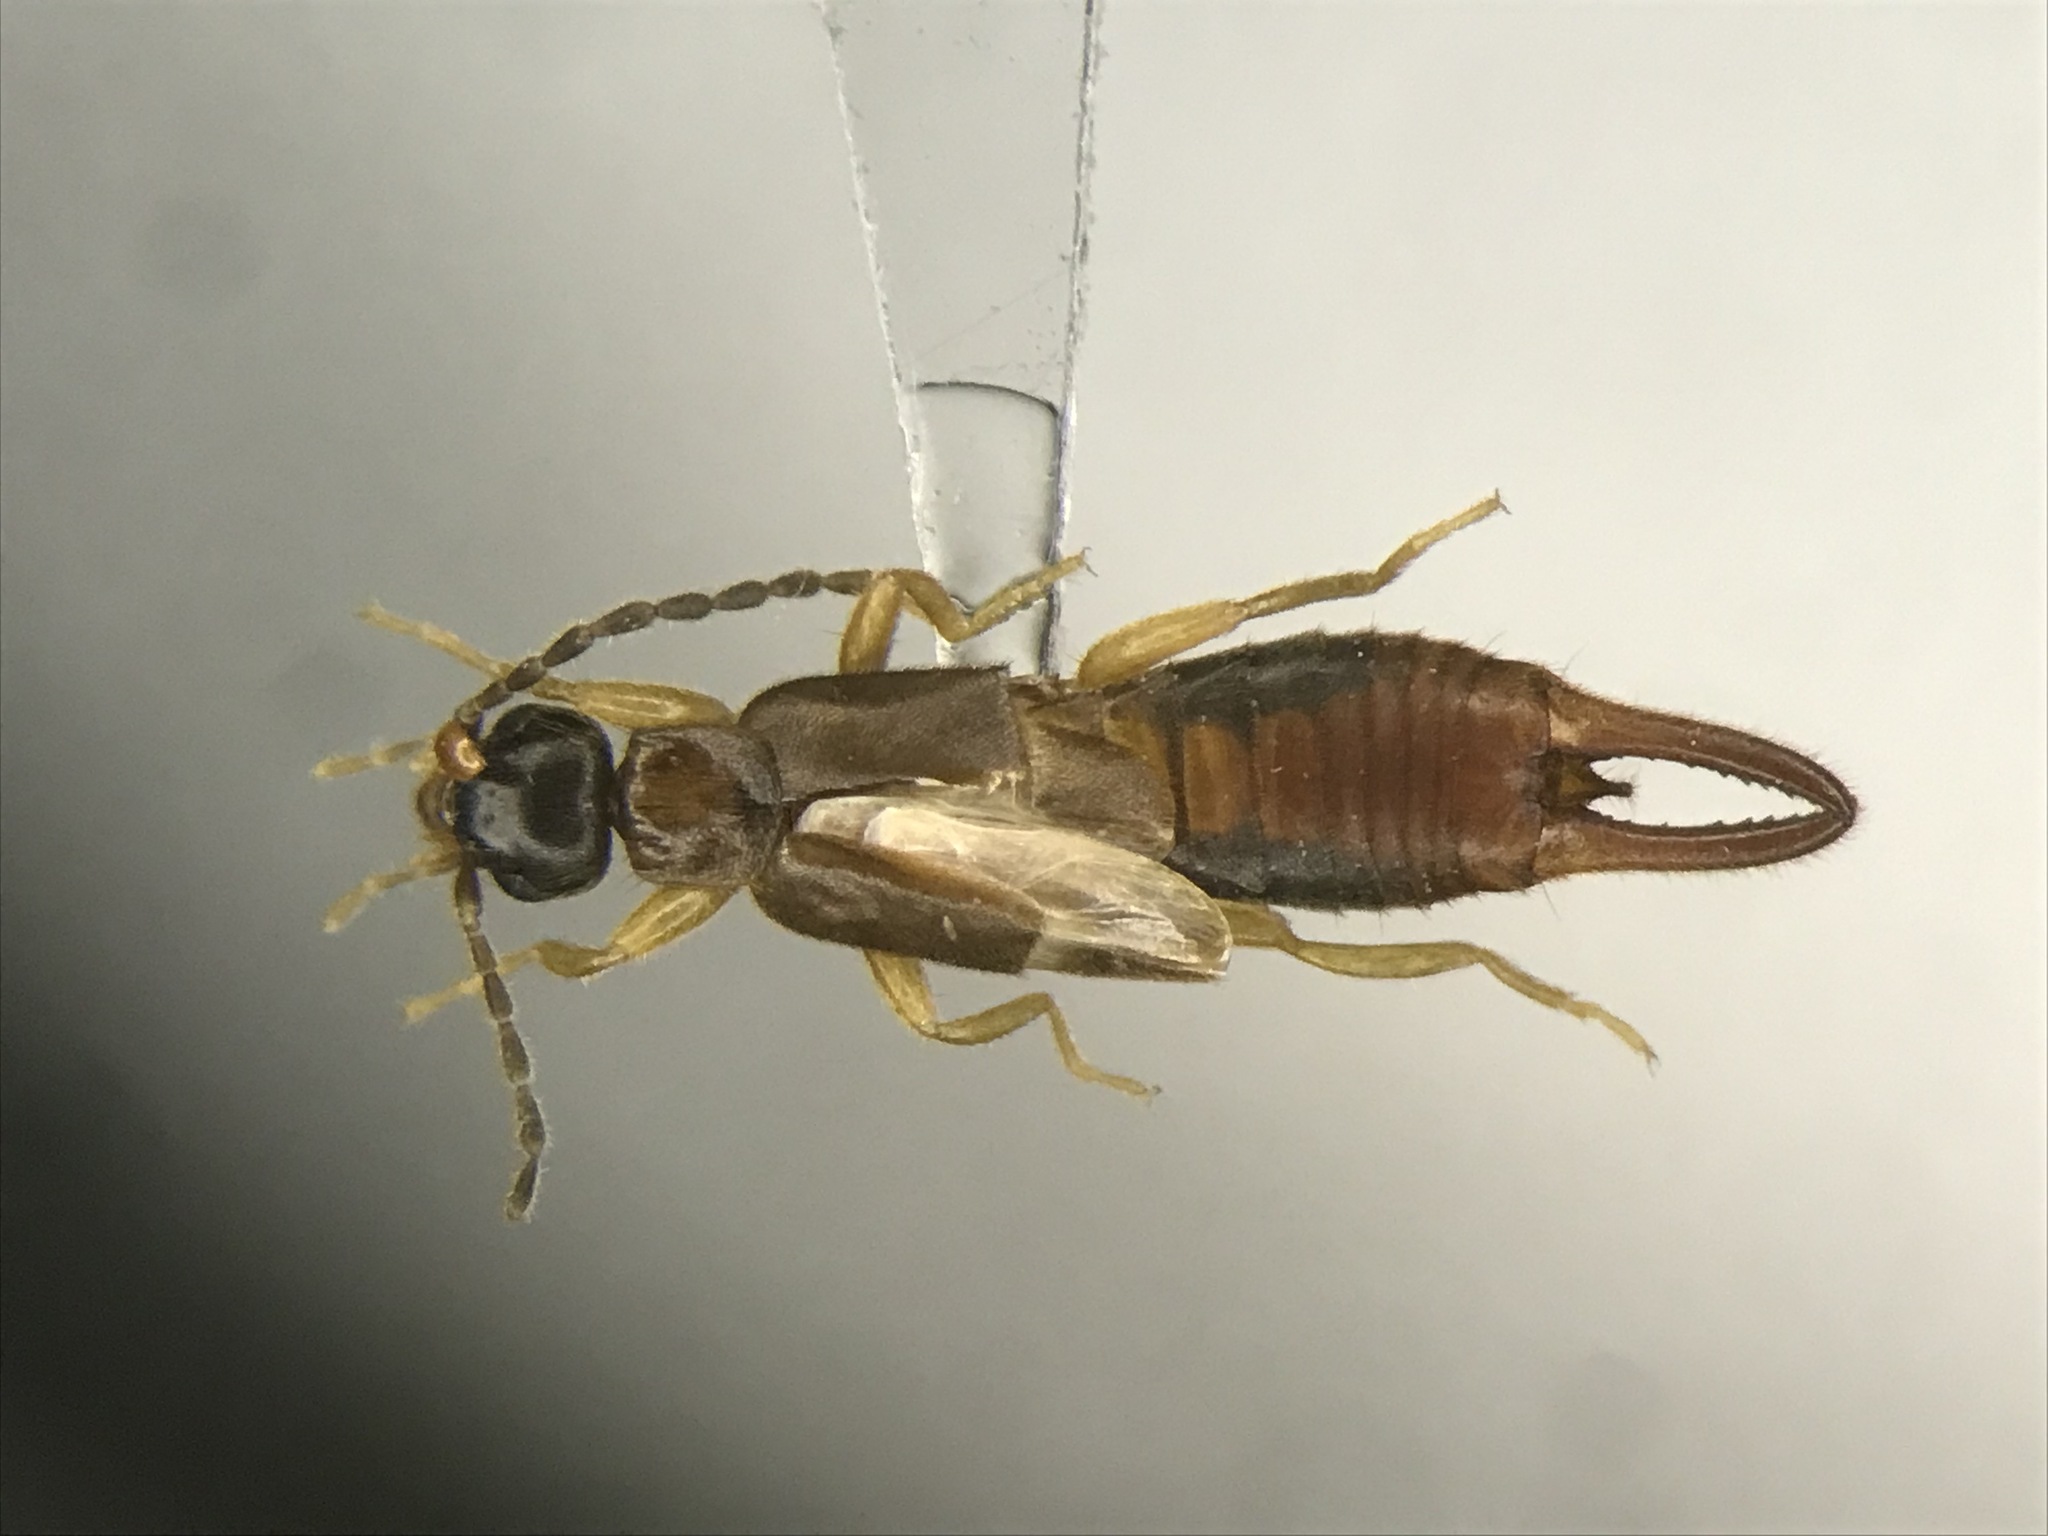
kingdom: Animalia
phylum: Arthropoda
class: Insecta
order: Dermaptera
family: Spongiphoridae
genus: Labia
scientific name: Labia minor
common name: Lesser earwig
